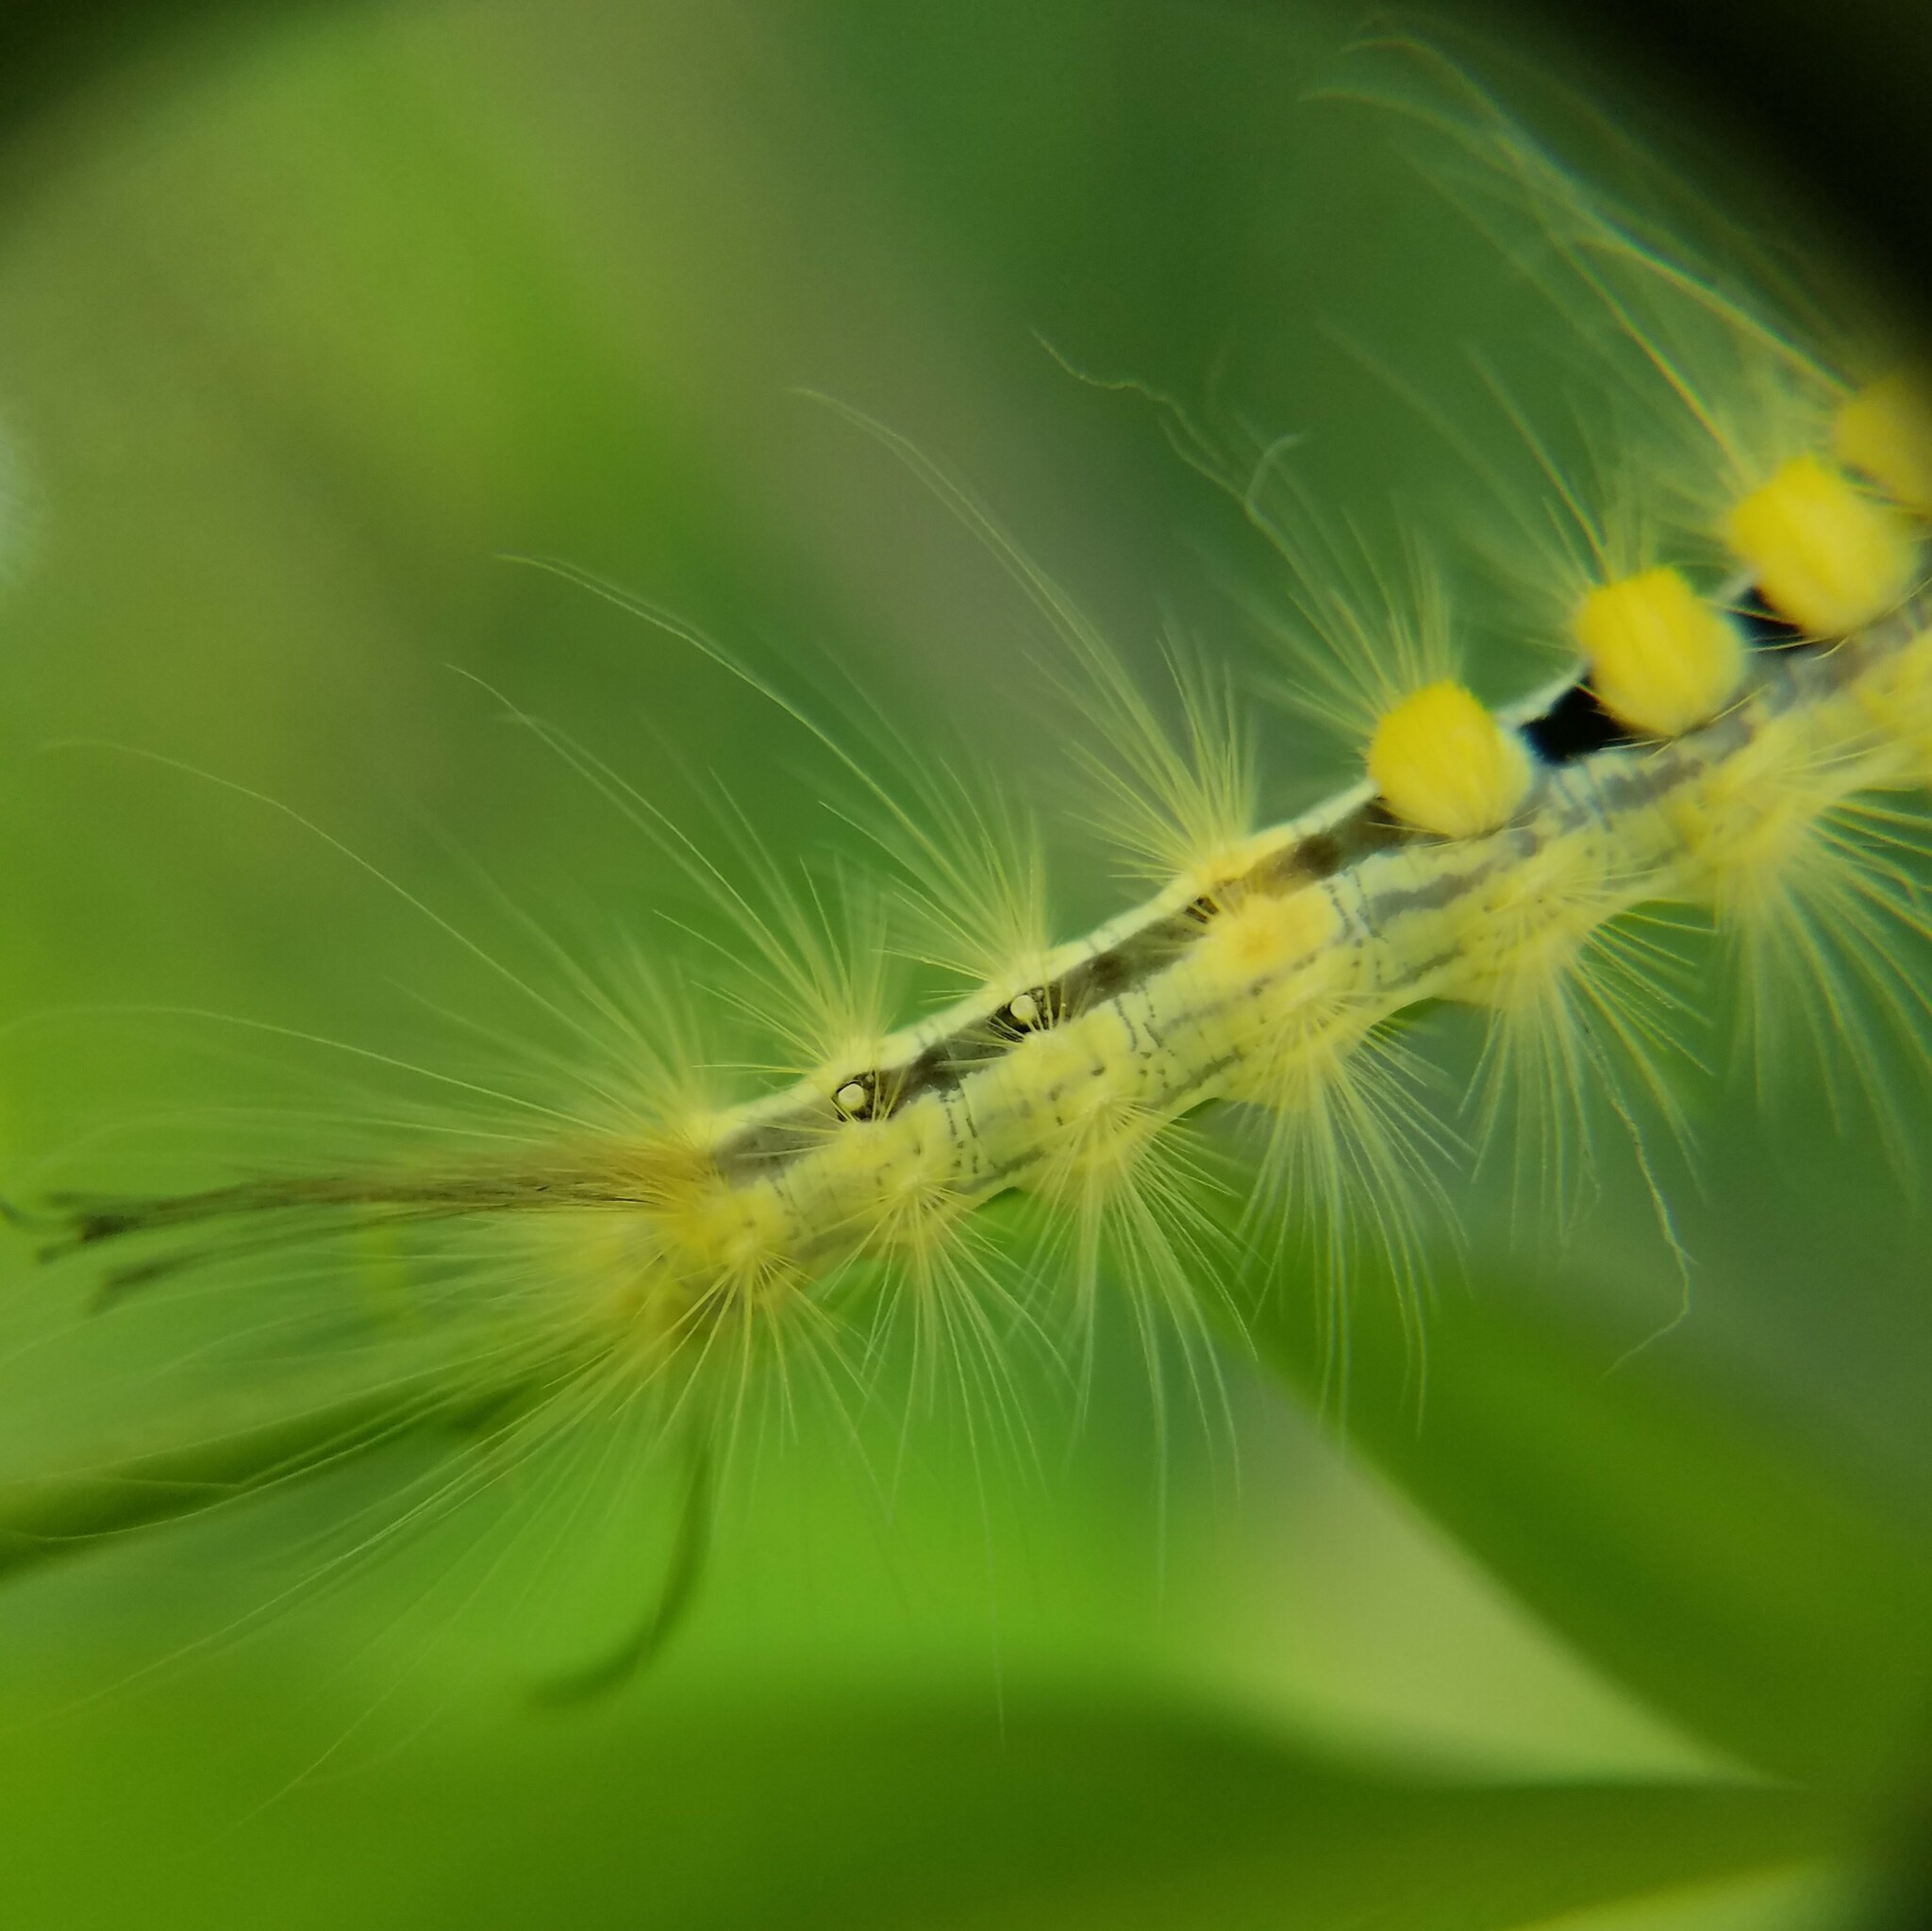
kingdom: Animalia
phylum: Arthropoda
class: Insecta
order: Lepidoptera
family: Erebidae
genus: Orgyia
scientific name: Orgyia definita
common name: Definite tussock moth
